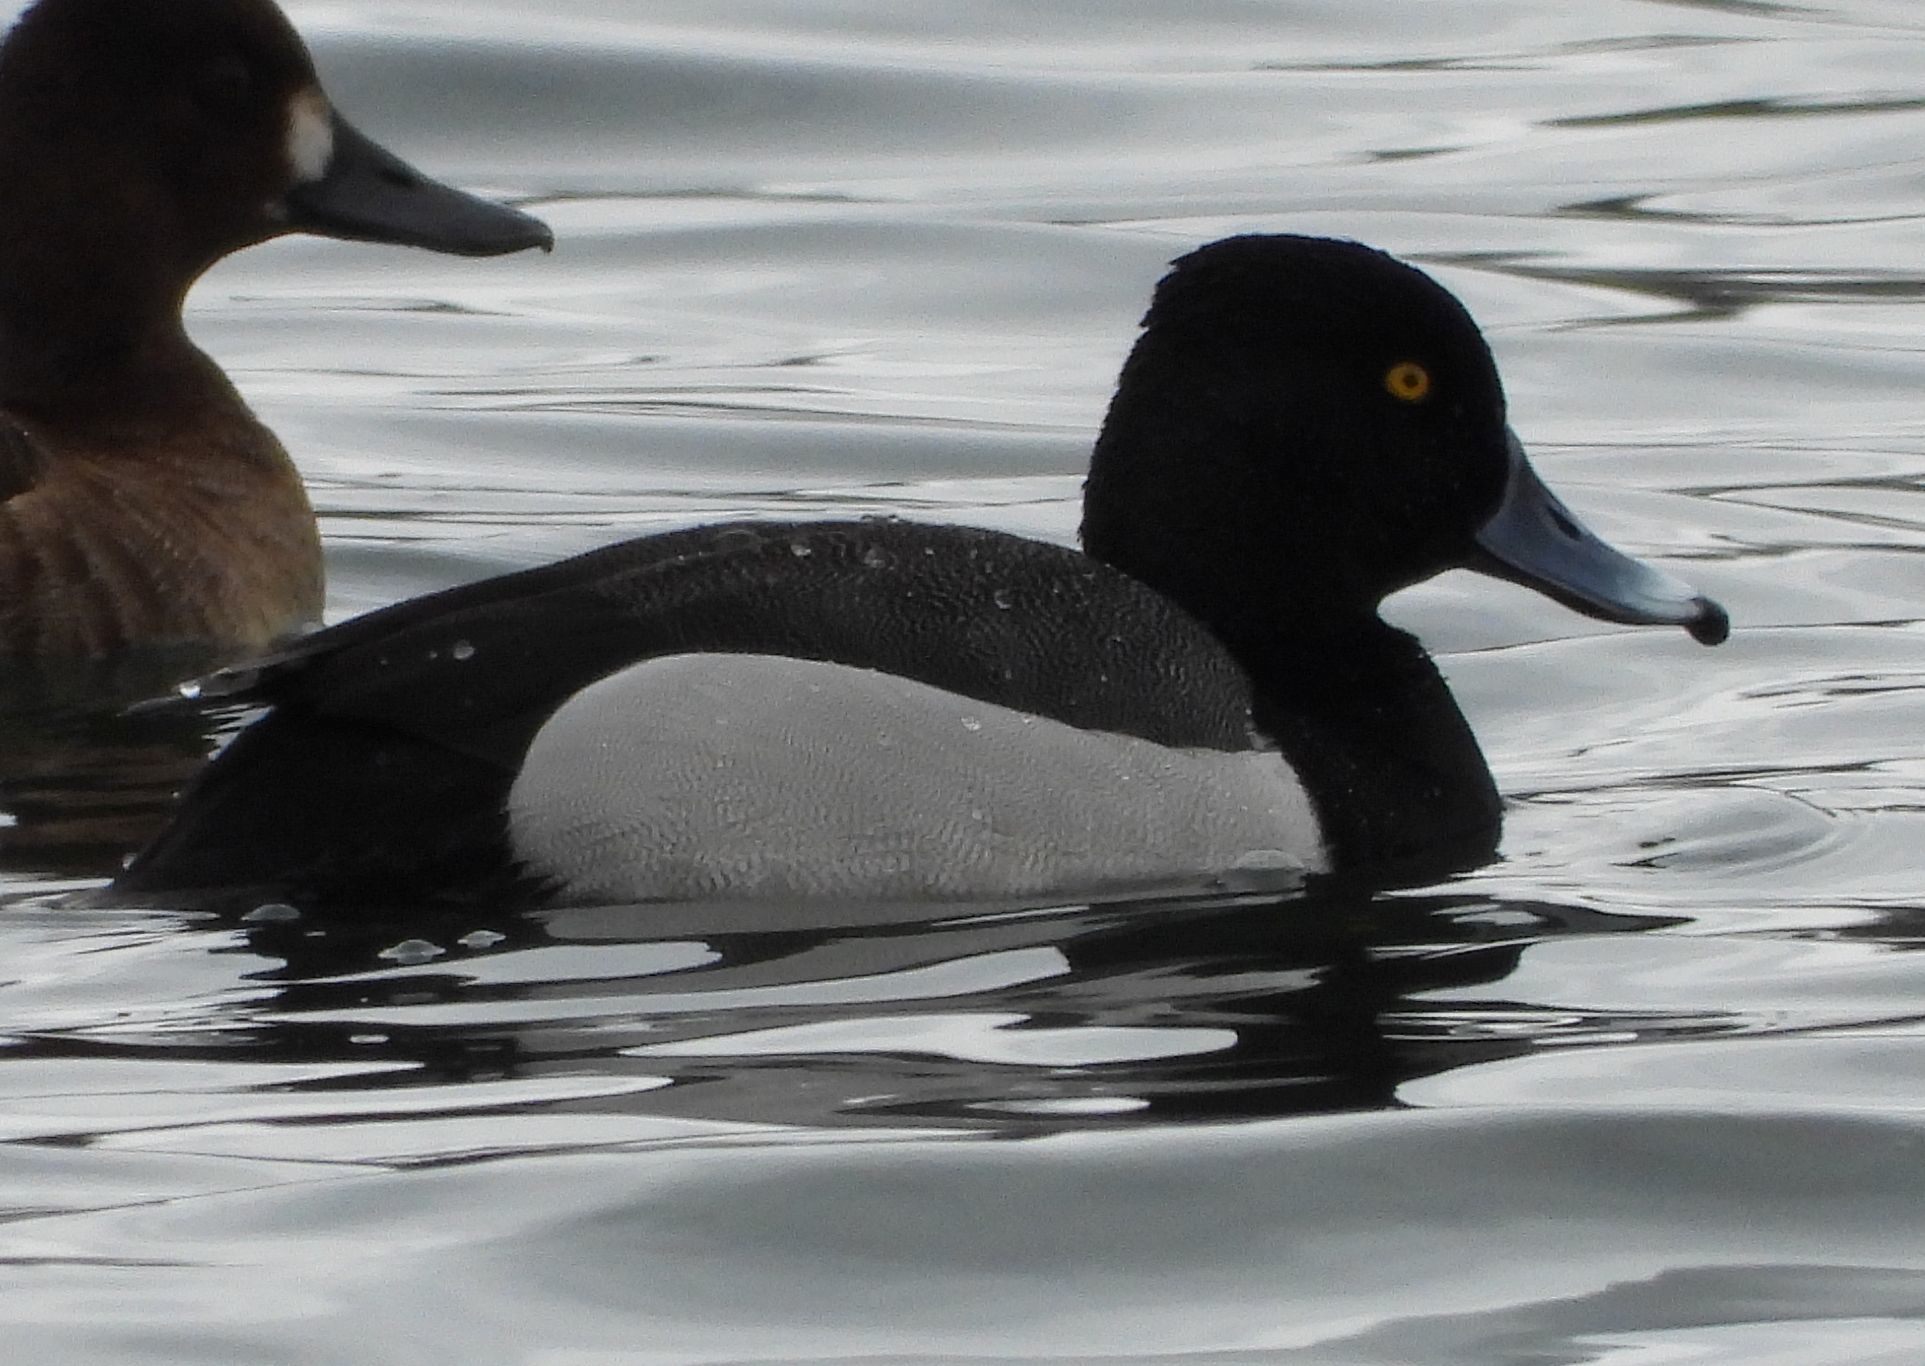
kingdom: Animalia
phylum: Chordata
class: Aves
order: Anseriformes
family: Anatidae
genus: Aythya
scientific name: Aythya
